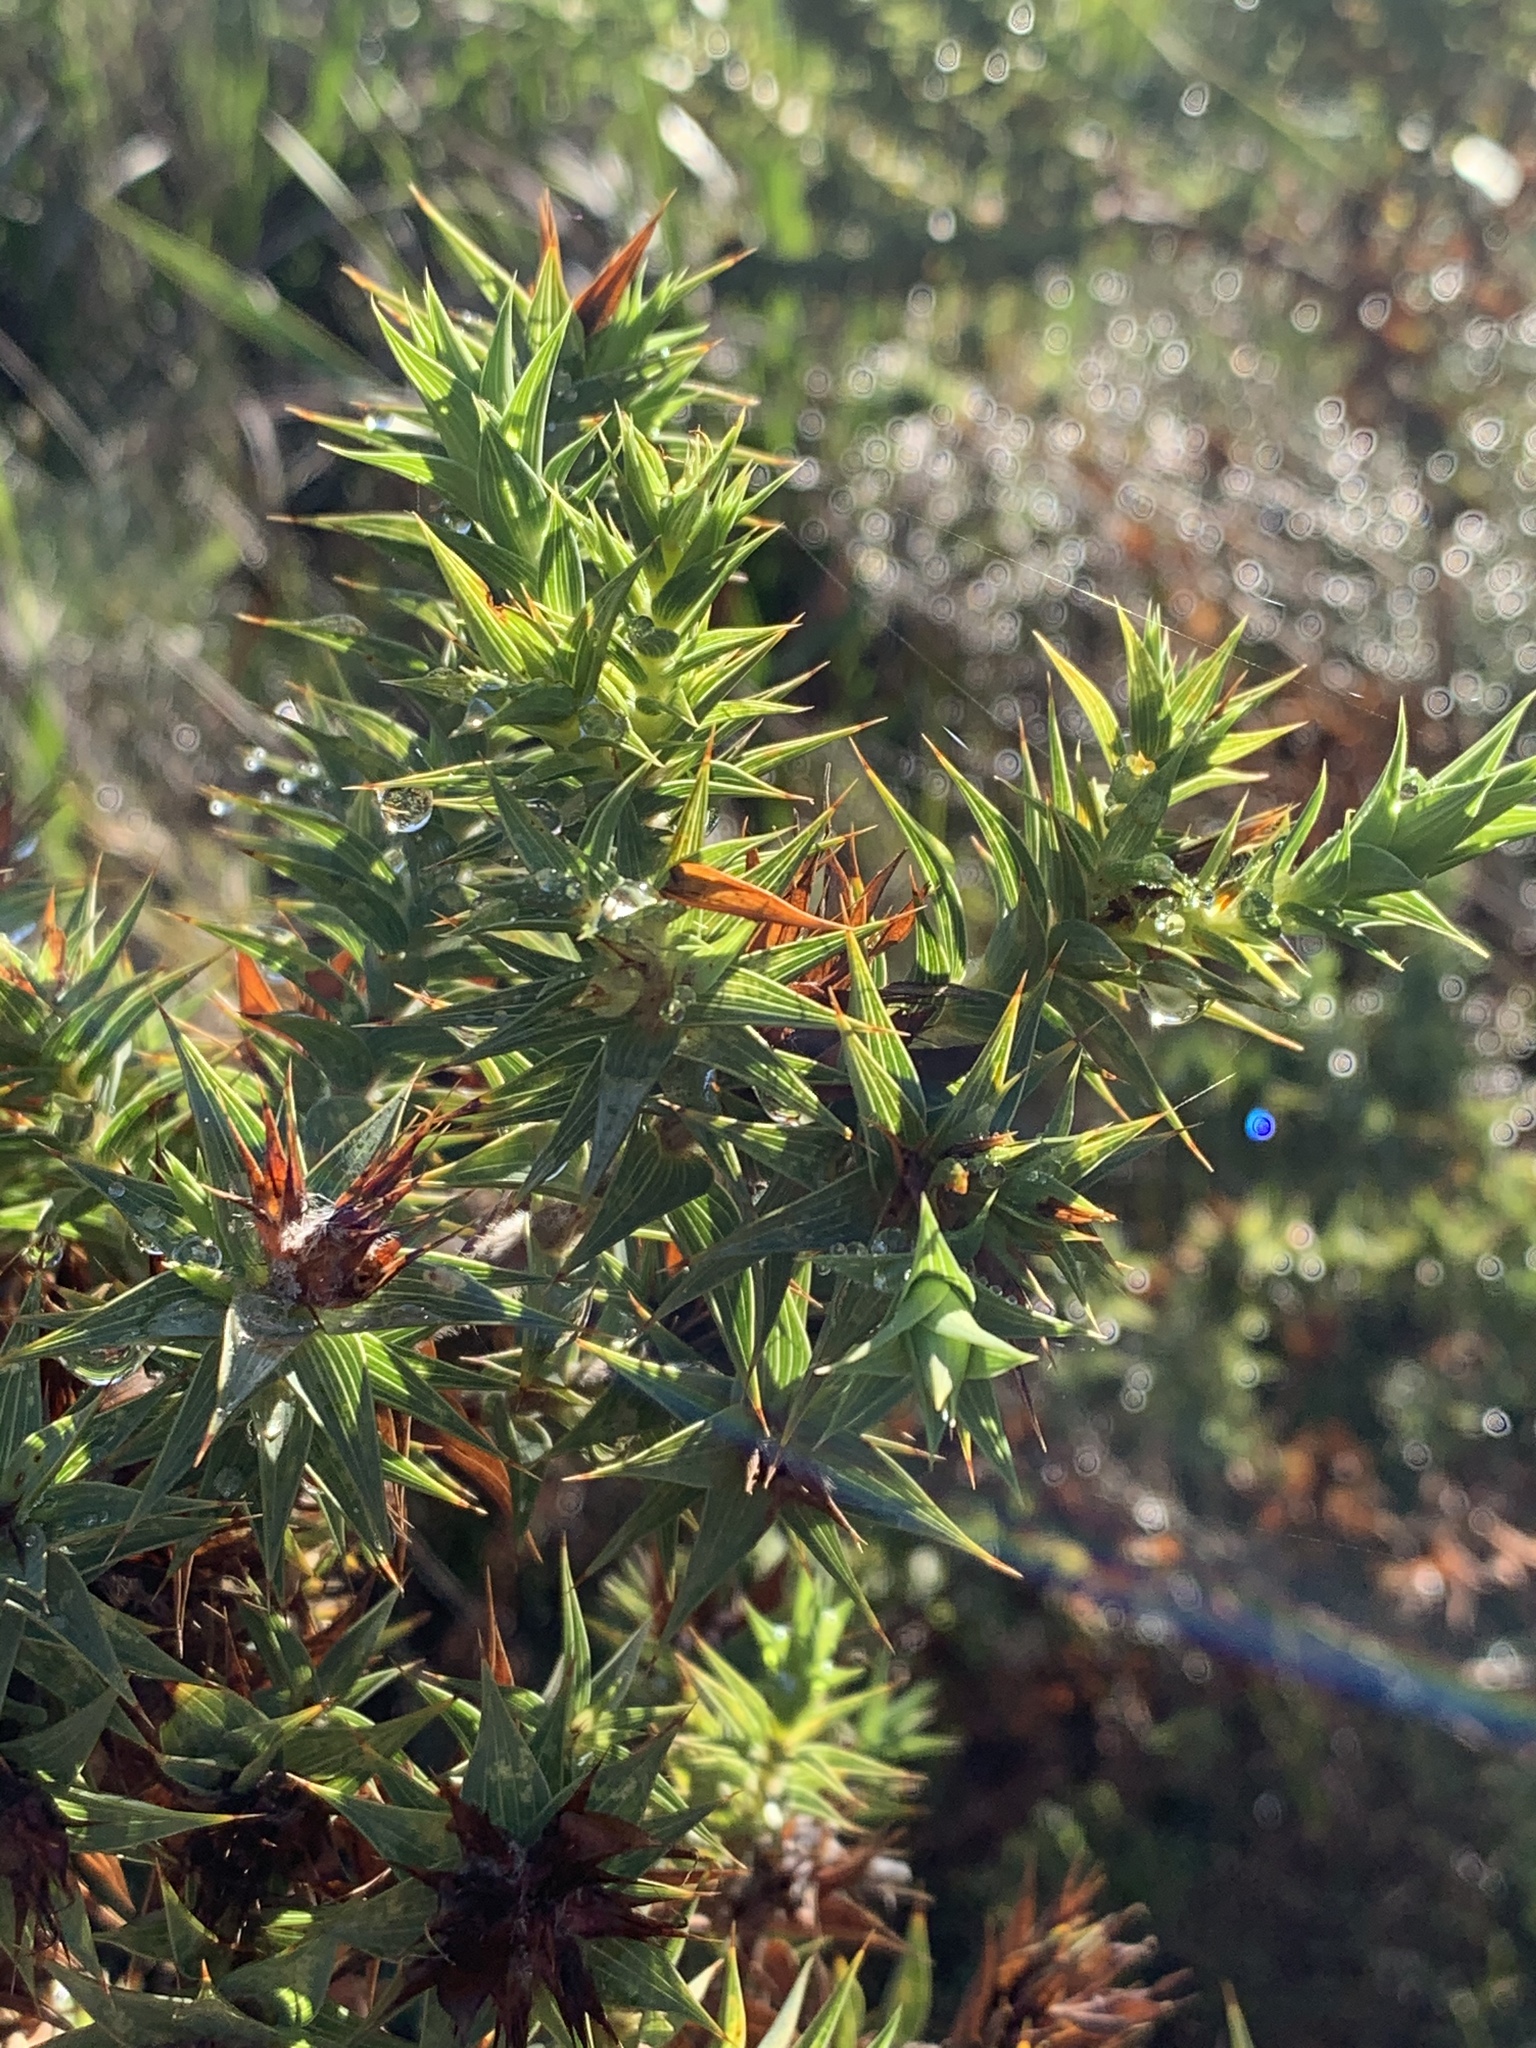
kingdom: Plantae
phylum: Tracheophyta
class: Magnoliopsida
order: Fabales
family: Fabaceae
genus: Aspalathus
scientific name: Aspalathus cordata
